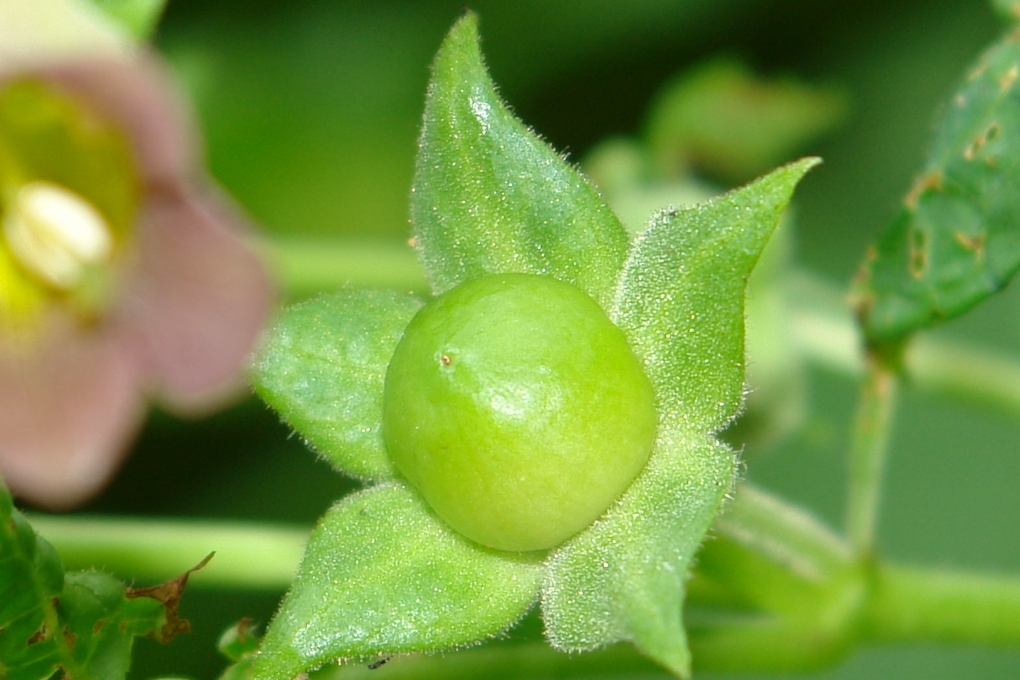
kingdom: Plantae
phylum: Tracheophyta
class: Magnoliopsida
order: Solanales
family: Solanaceae
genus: Atropa
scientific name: Atropa belladonna
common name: Deadly nightshade
